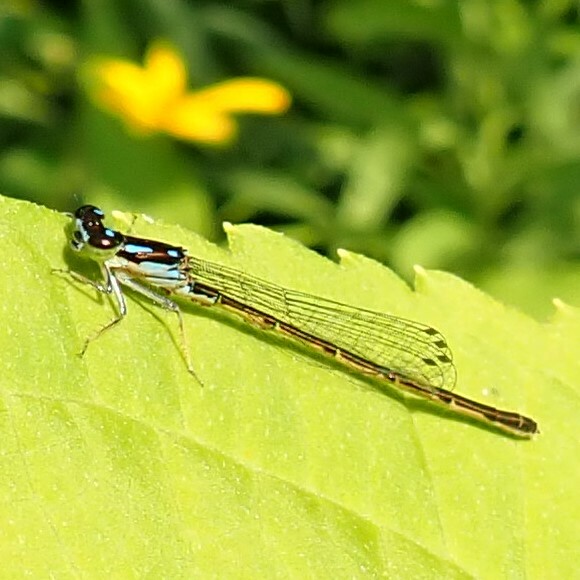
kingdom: Animalia
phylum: Arthropoda
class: Insecta
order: Odonata
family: Coenagrionidae
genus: Ischnura
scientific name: Ischnura posita
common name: Fragile forktail
